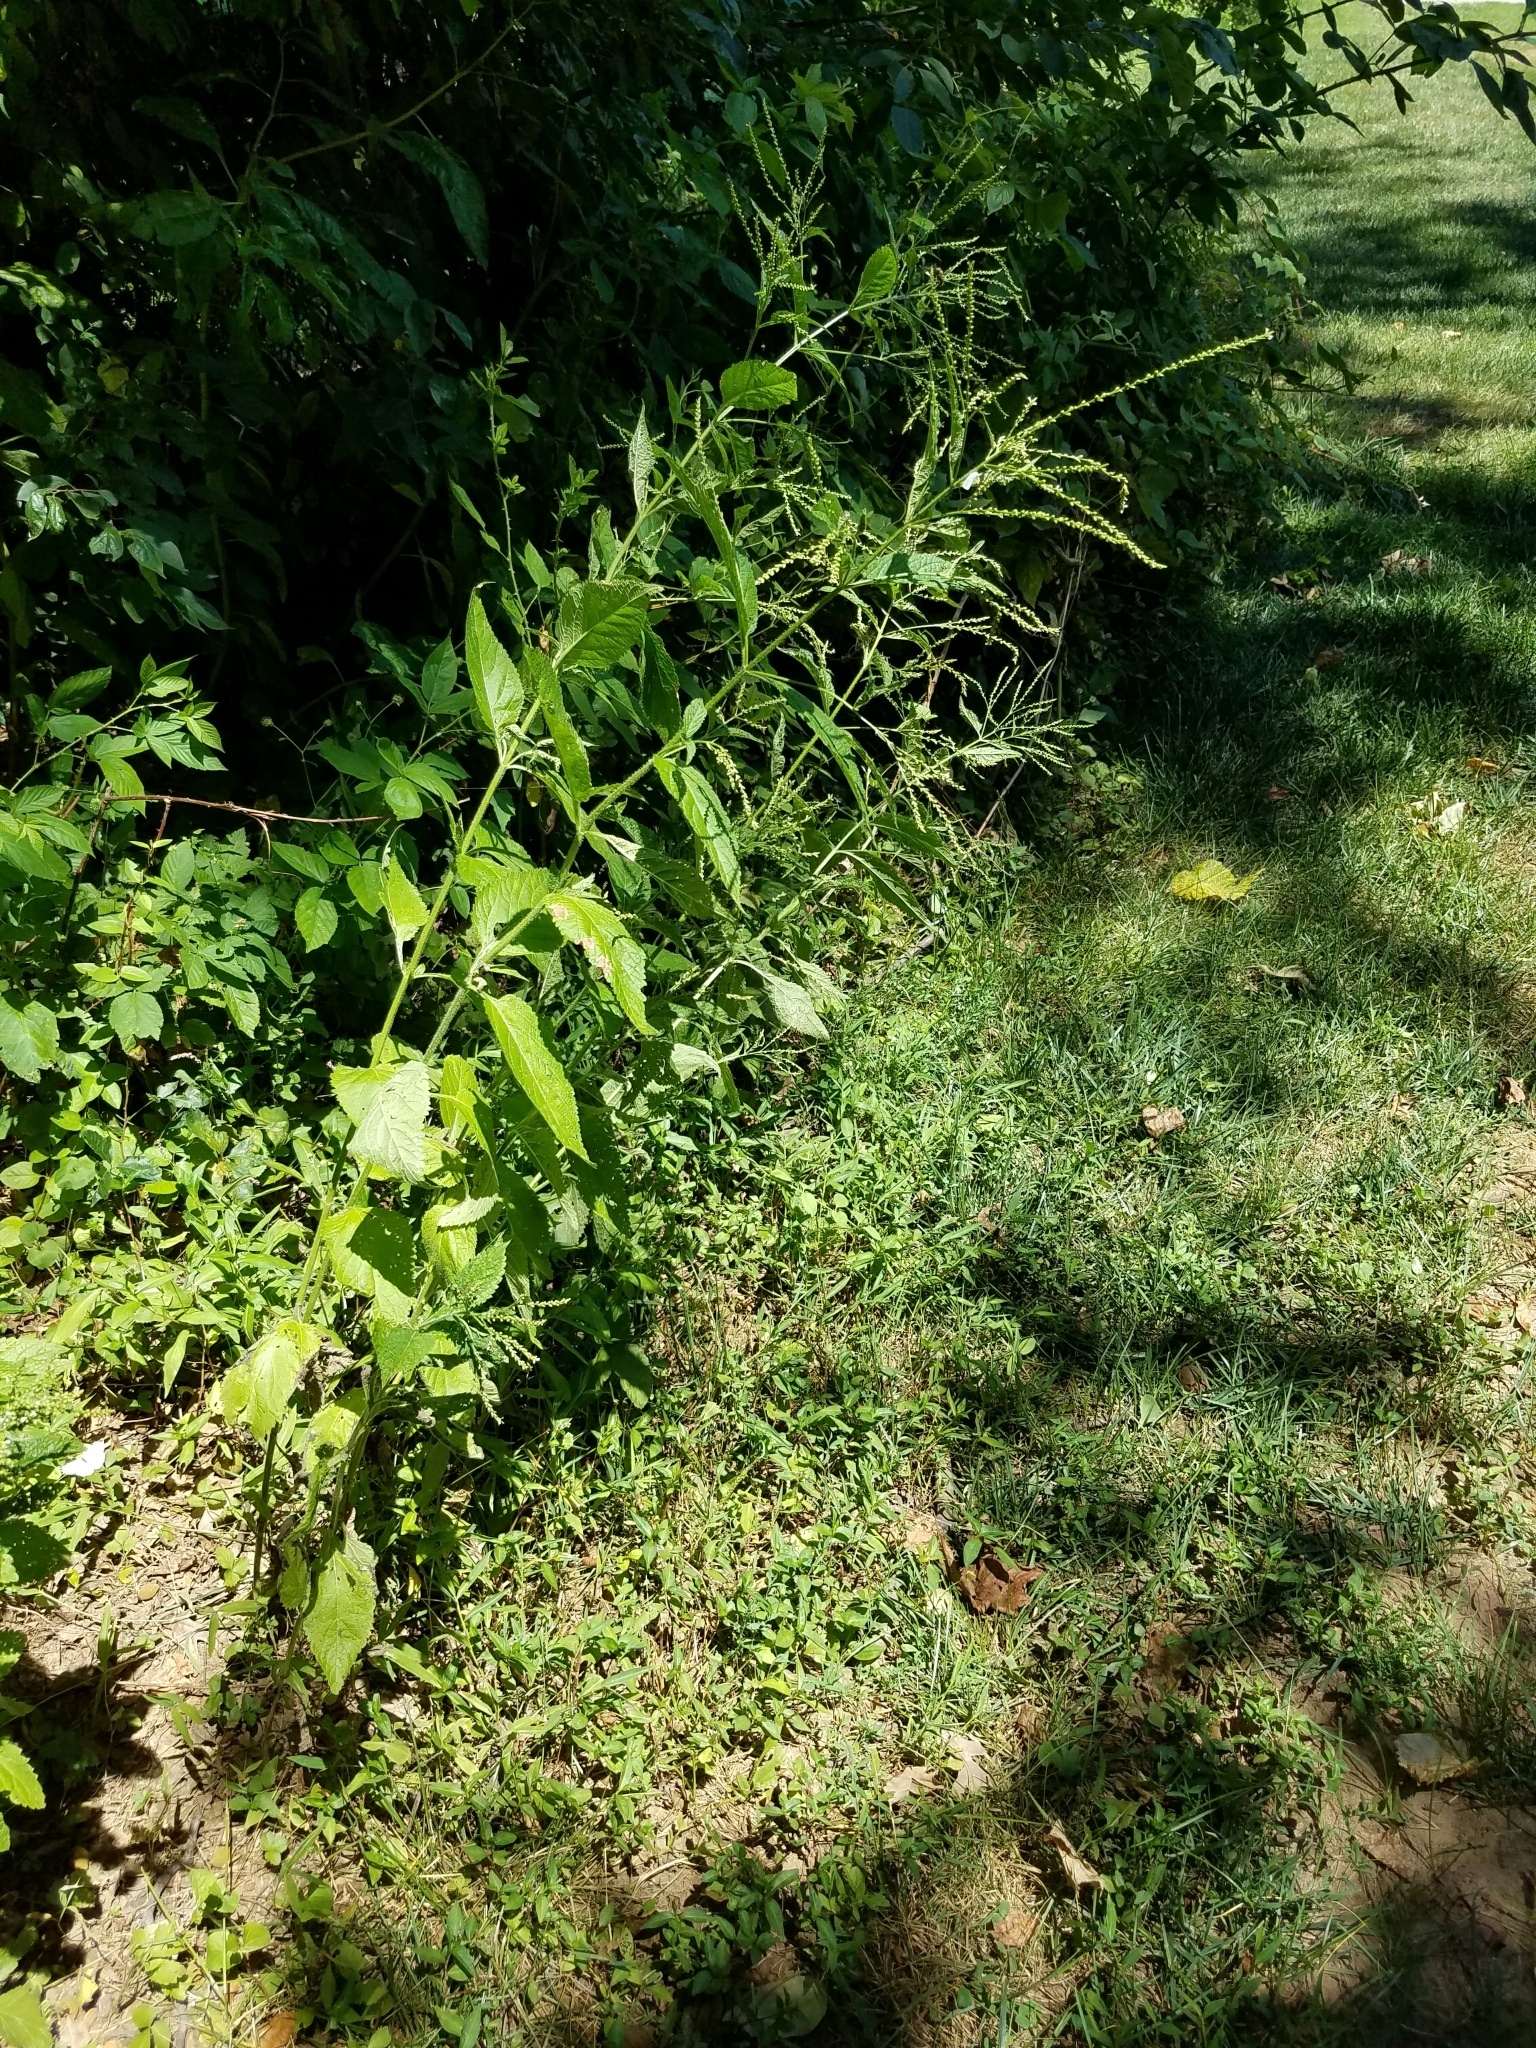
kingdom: Plantae
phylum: Tracheophyta
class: Magnoliopsida
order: Lamiales
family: Verbenaceae
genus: Verbena
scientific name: Verbena urticifolia
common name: Nettle-leaved vervain
